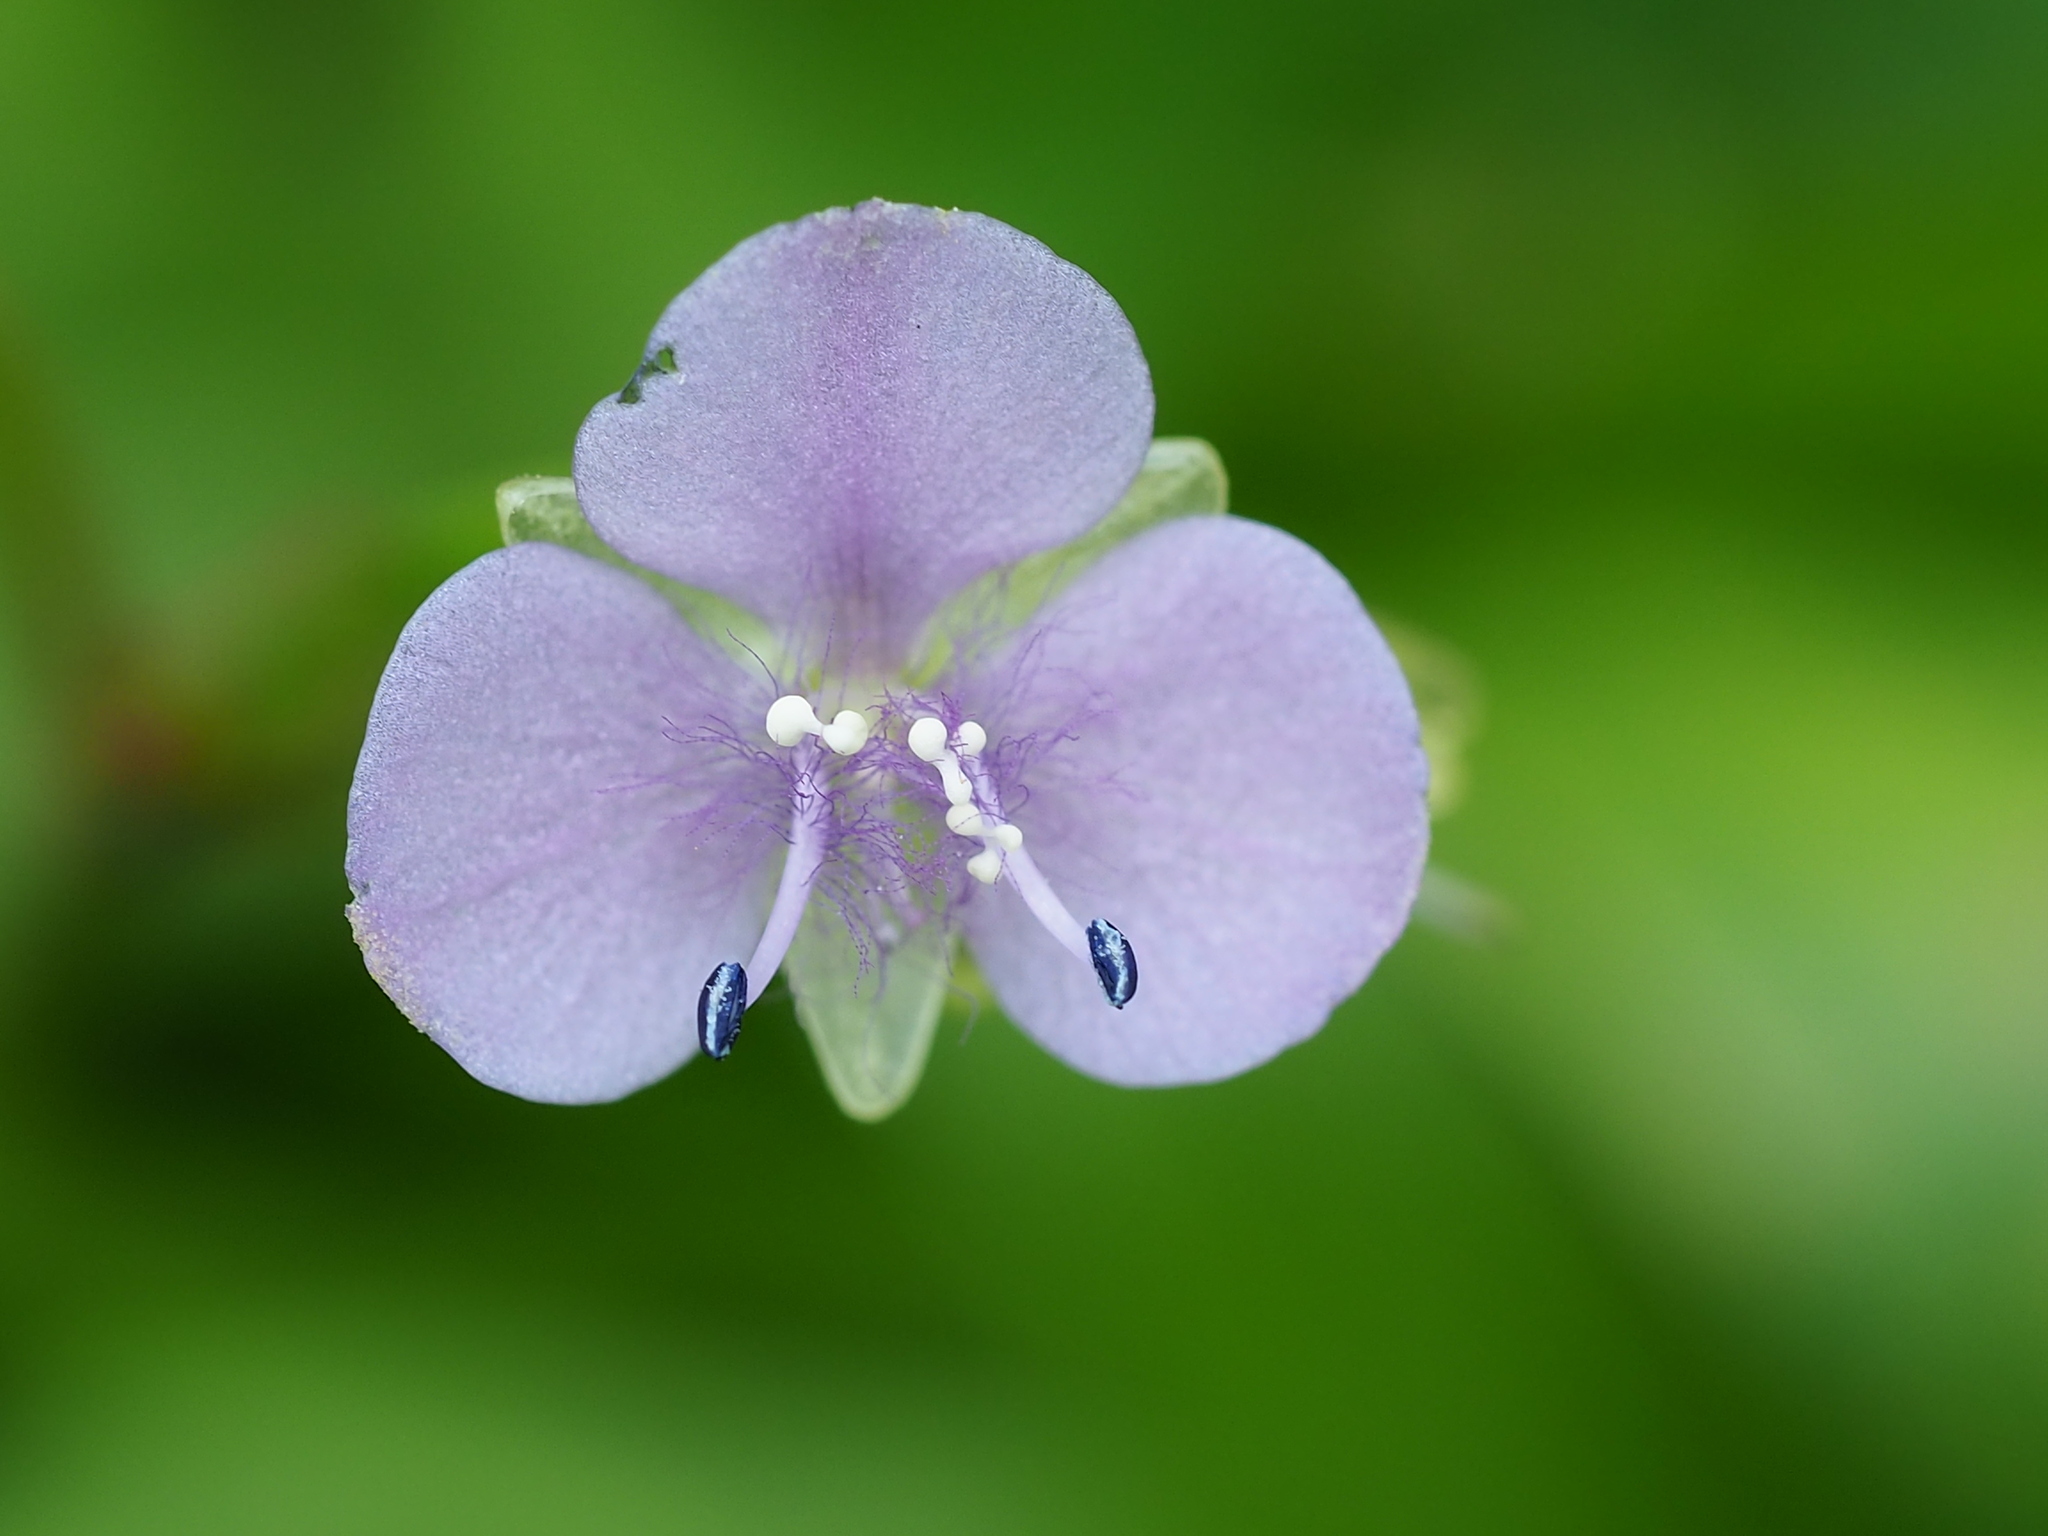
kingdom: Plantae
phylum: Tracheophyta
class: Liliopsida
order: Commelinales
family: Commelinaceae
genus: Murdannia
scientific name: Murdannia loriformis
